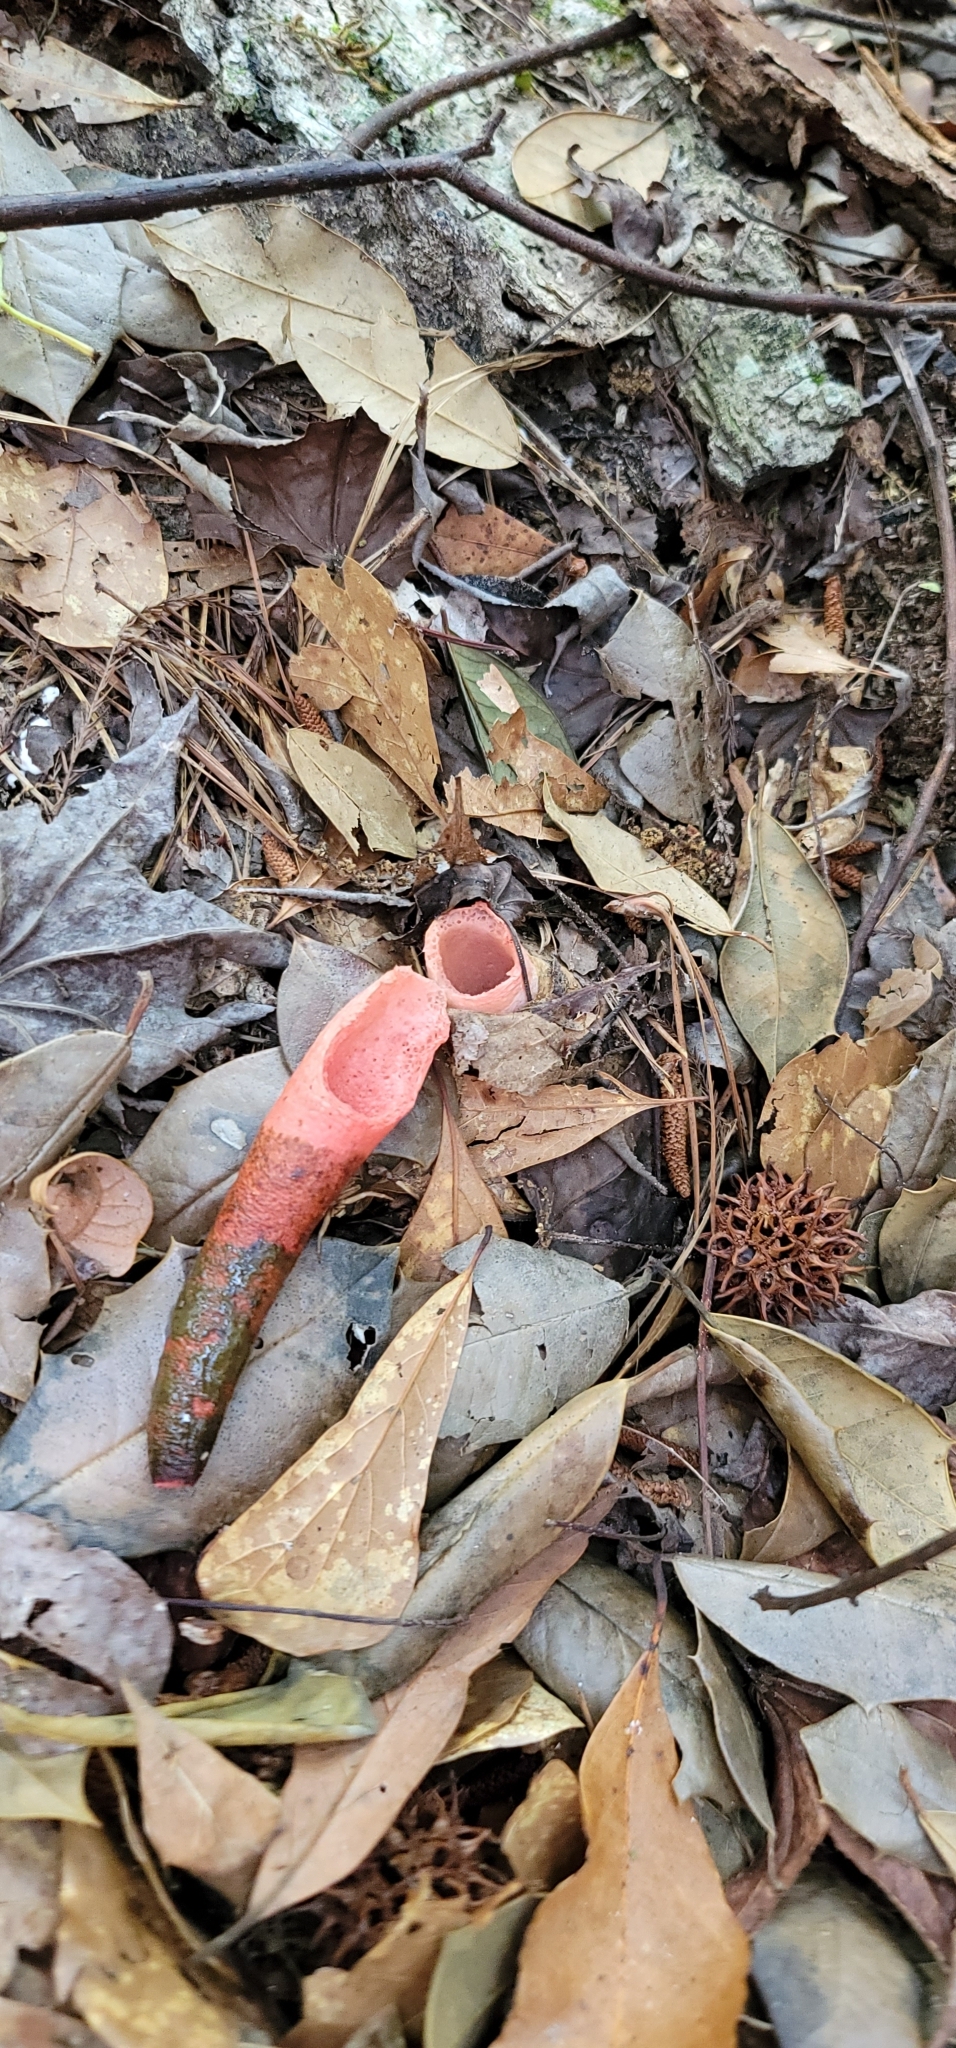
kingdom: Fungi
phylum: Basidiomycota
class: Agaricomycetes
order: Phallales
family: Phallaceae
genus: Mutinus
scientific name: Mutinus elegans
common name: Devil's dipstick
